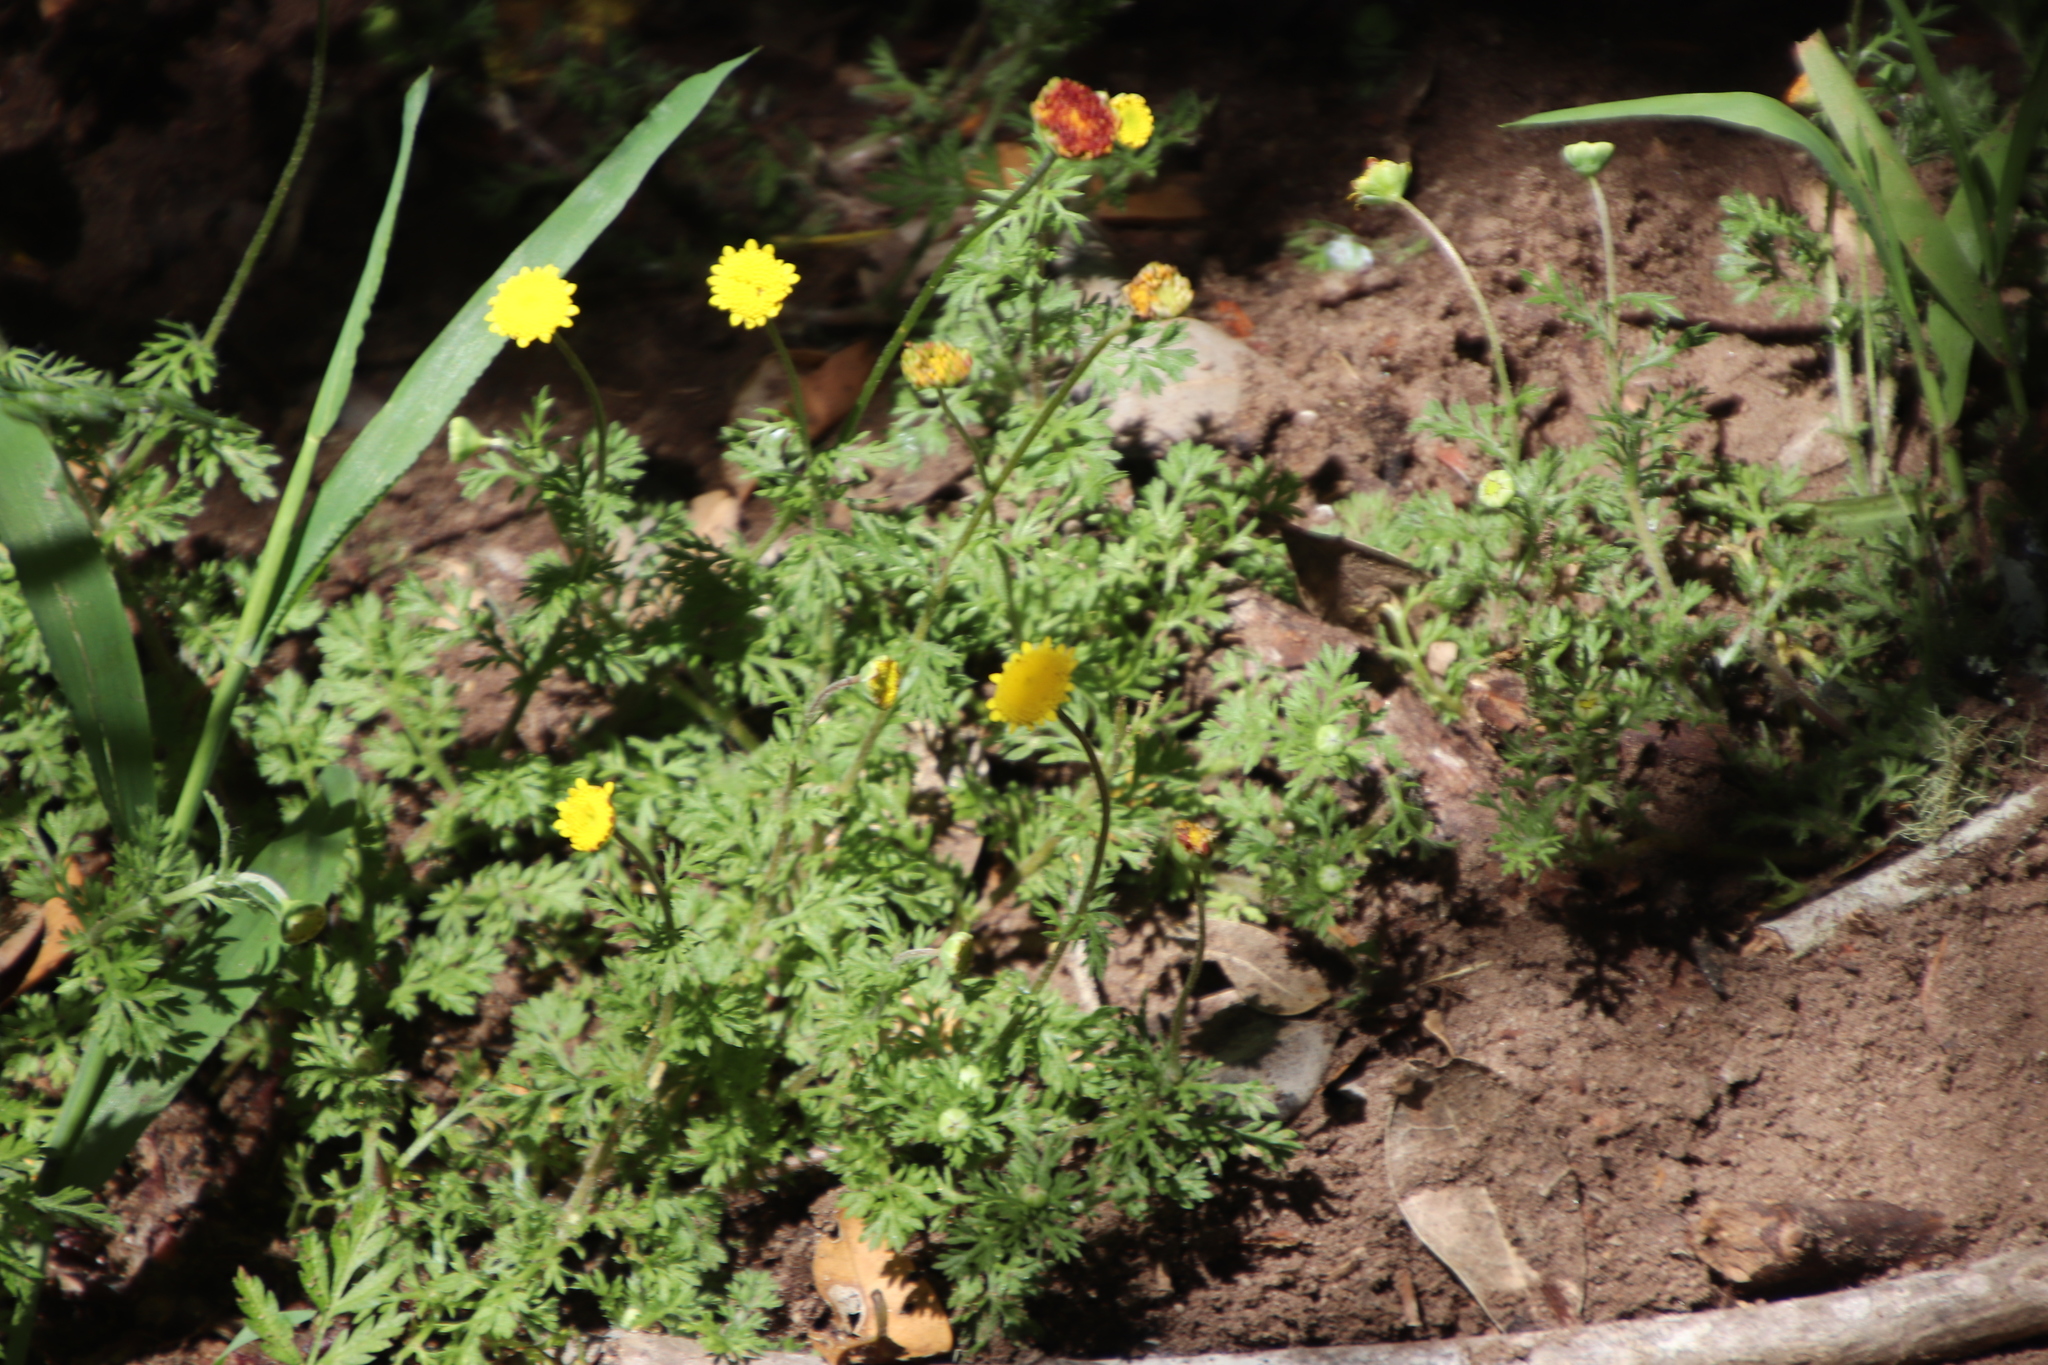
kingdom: Plantae
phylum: Tracheophyta
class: Magnoliopsida
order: Asterales
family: Asteraceae
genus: Cotula
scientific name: Cotula pruinosa
